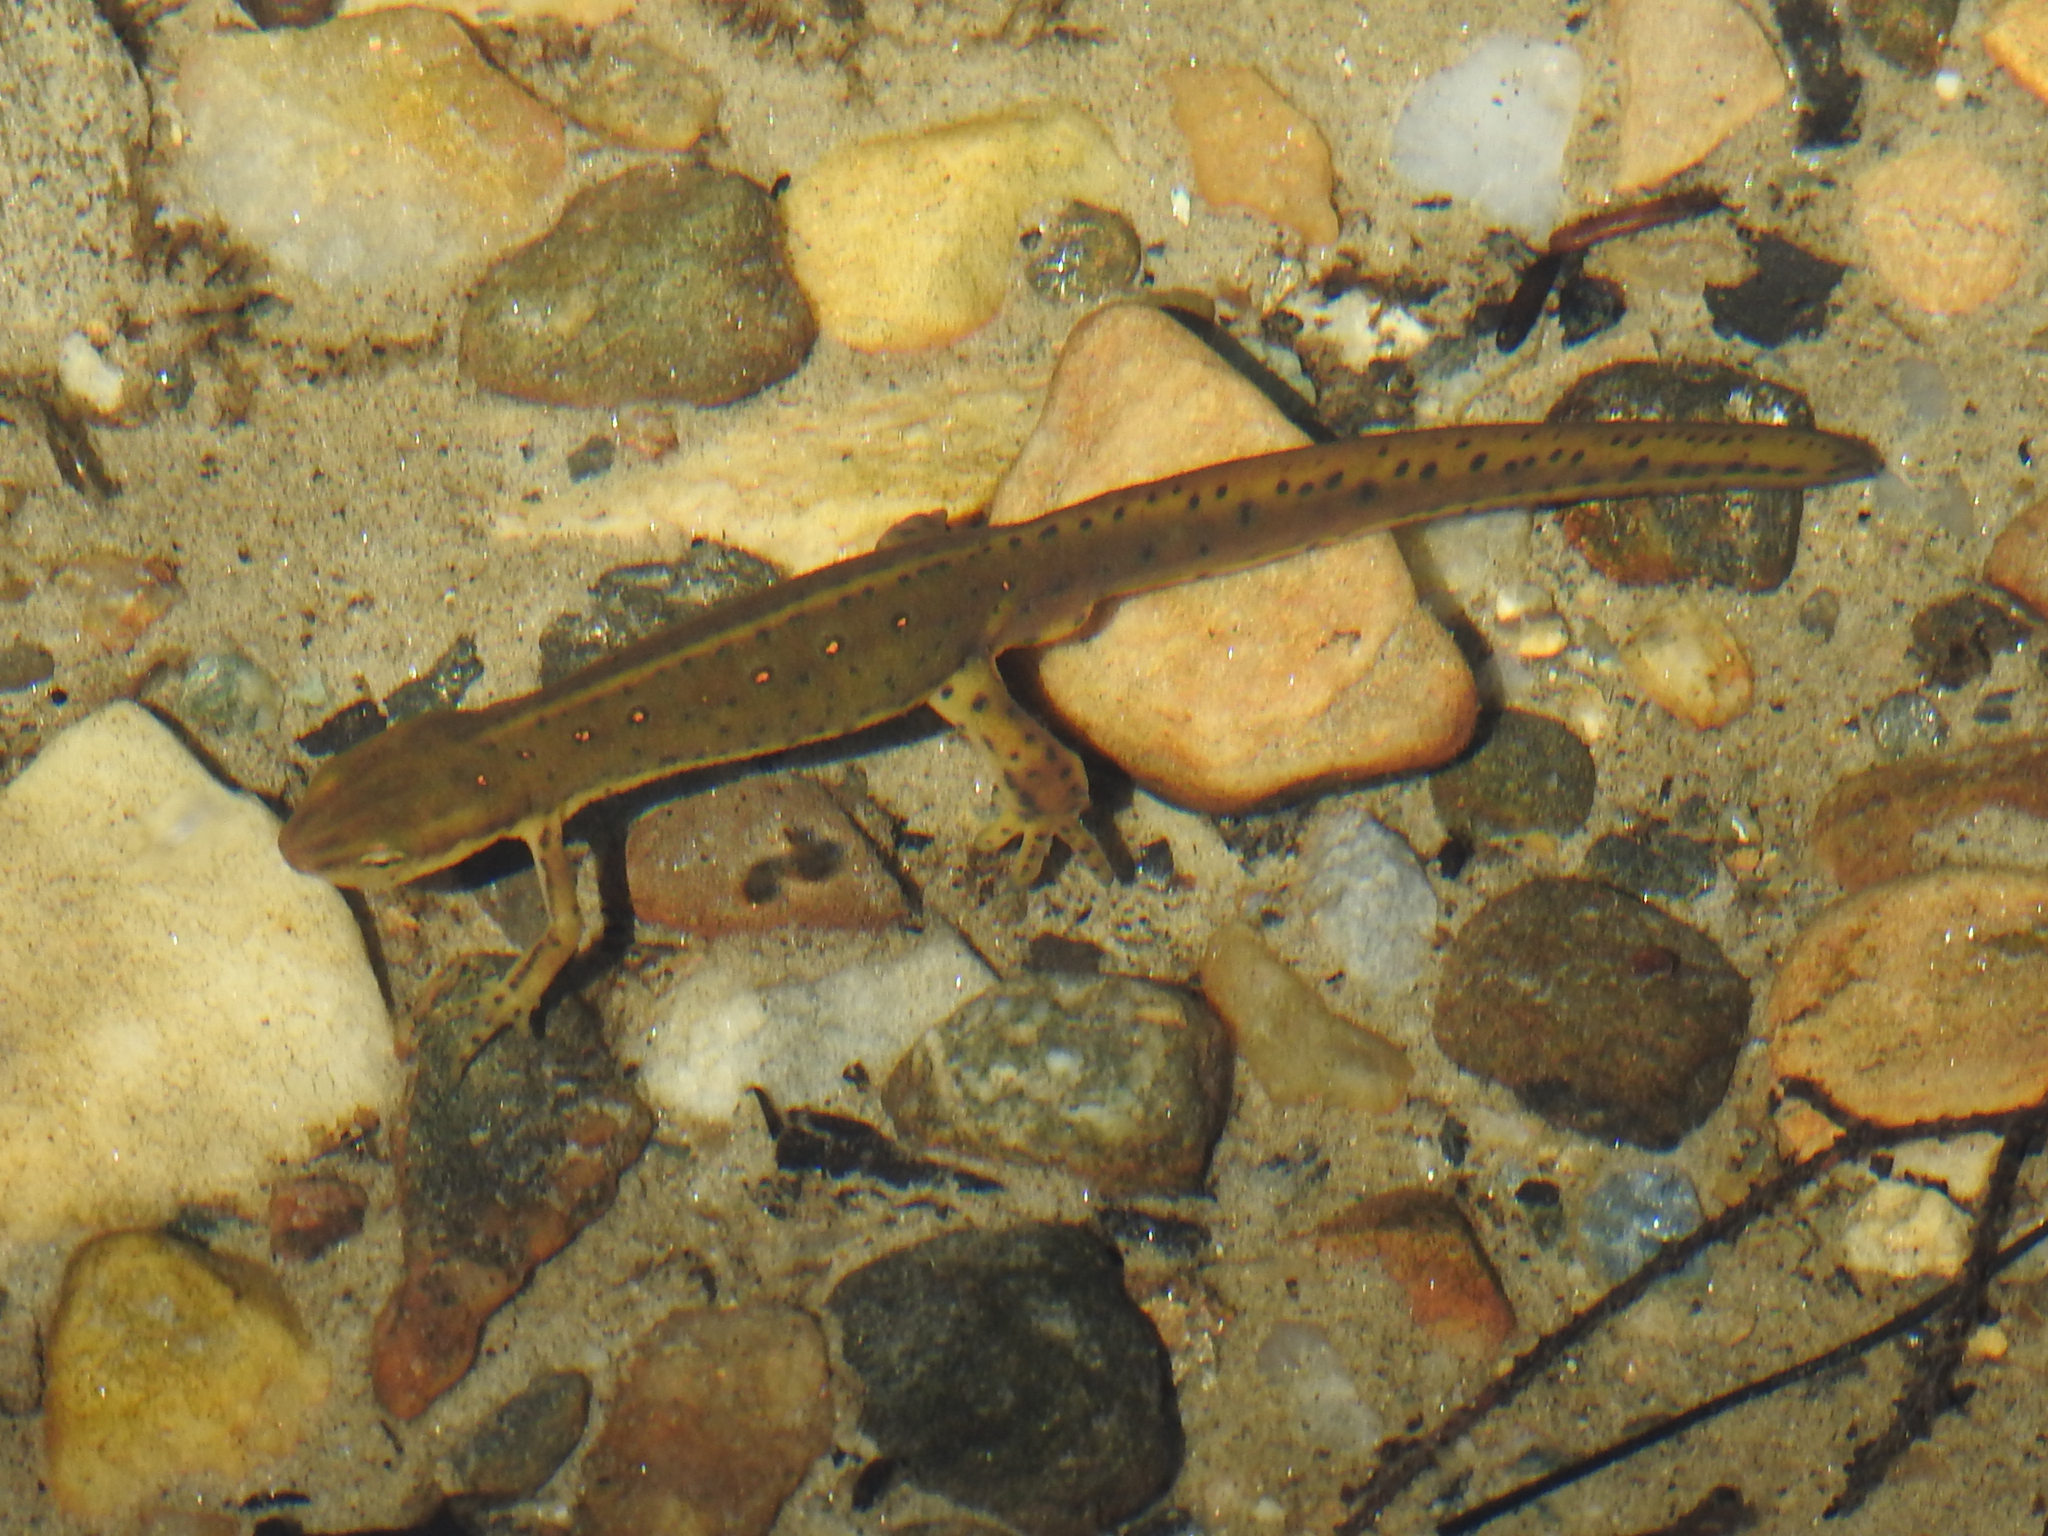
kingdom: Animalia
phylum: Chordata
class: Amphibia
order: Caudata
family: Salamandridae
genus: Notophthalmus
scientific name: Notophthalmus viridescens
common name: Eastern newt
